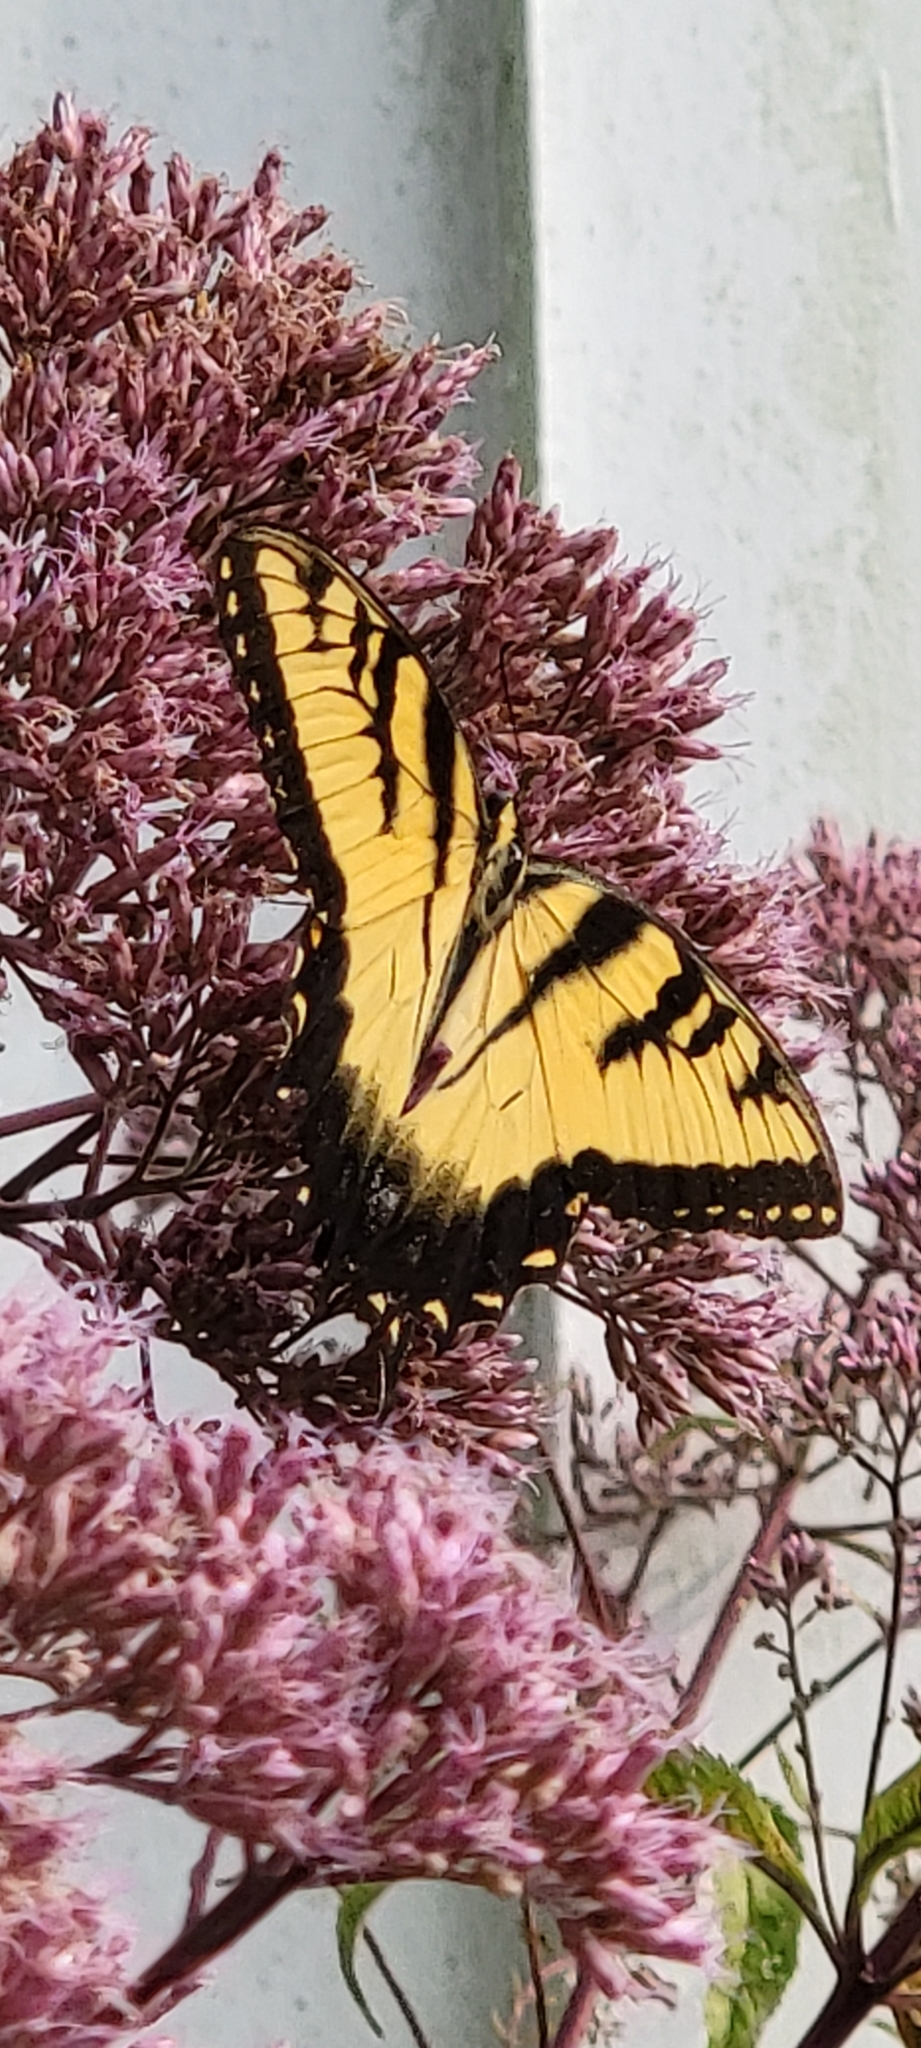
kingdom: Animalia
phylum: Arthropoda
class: Insecta
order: Lepidoptera
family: Papilionidae
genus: Papilio
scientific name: Papilio glaucus
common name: Tiger swallowtail
